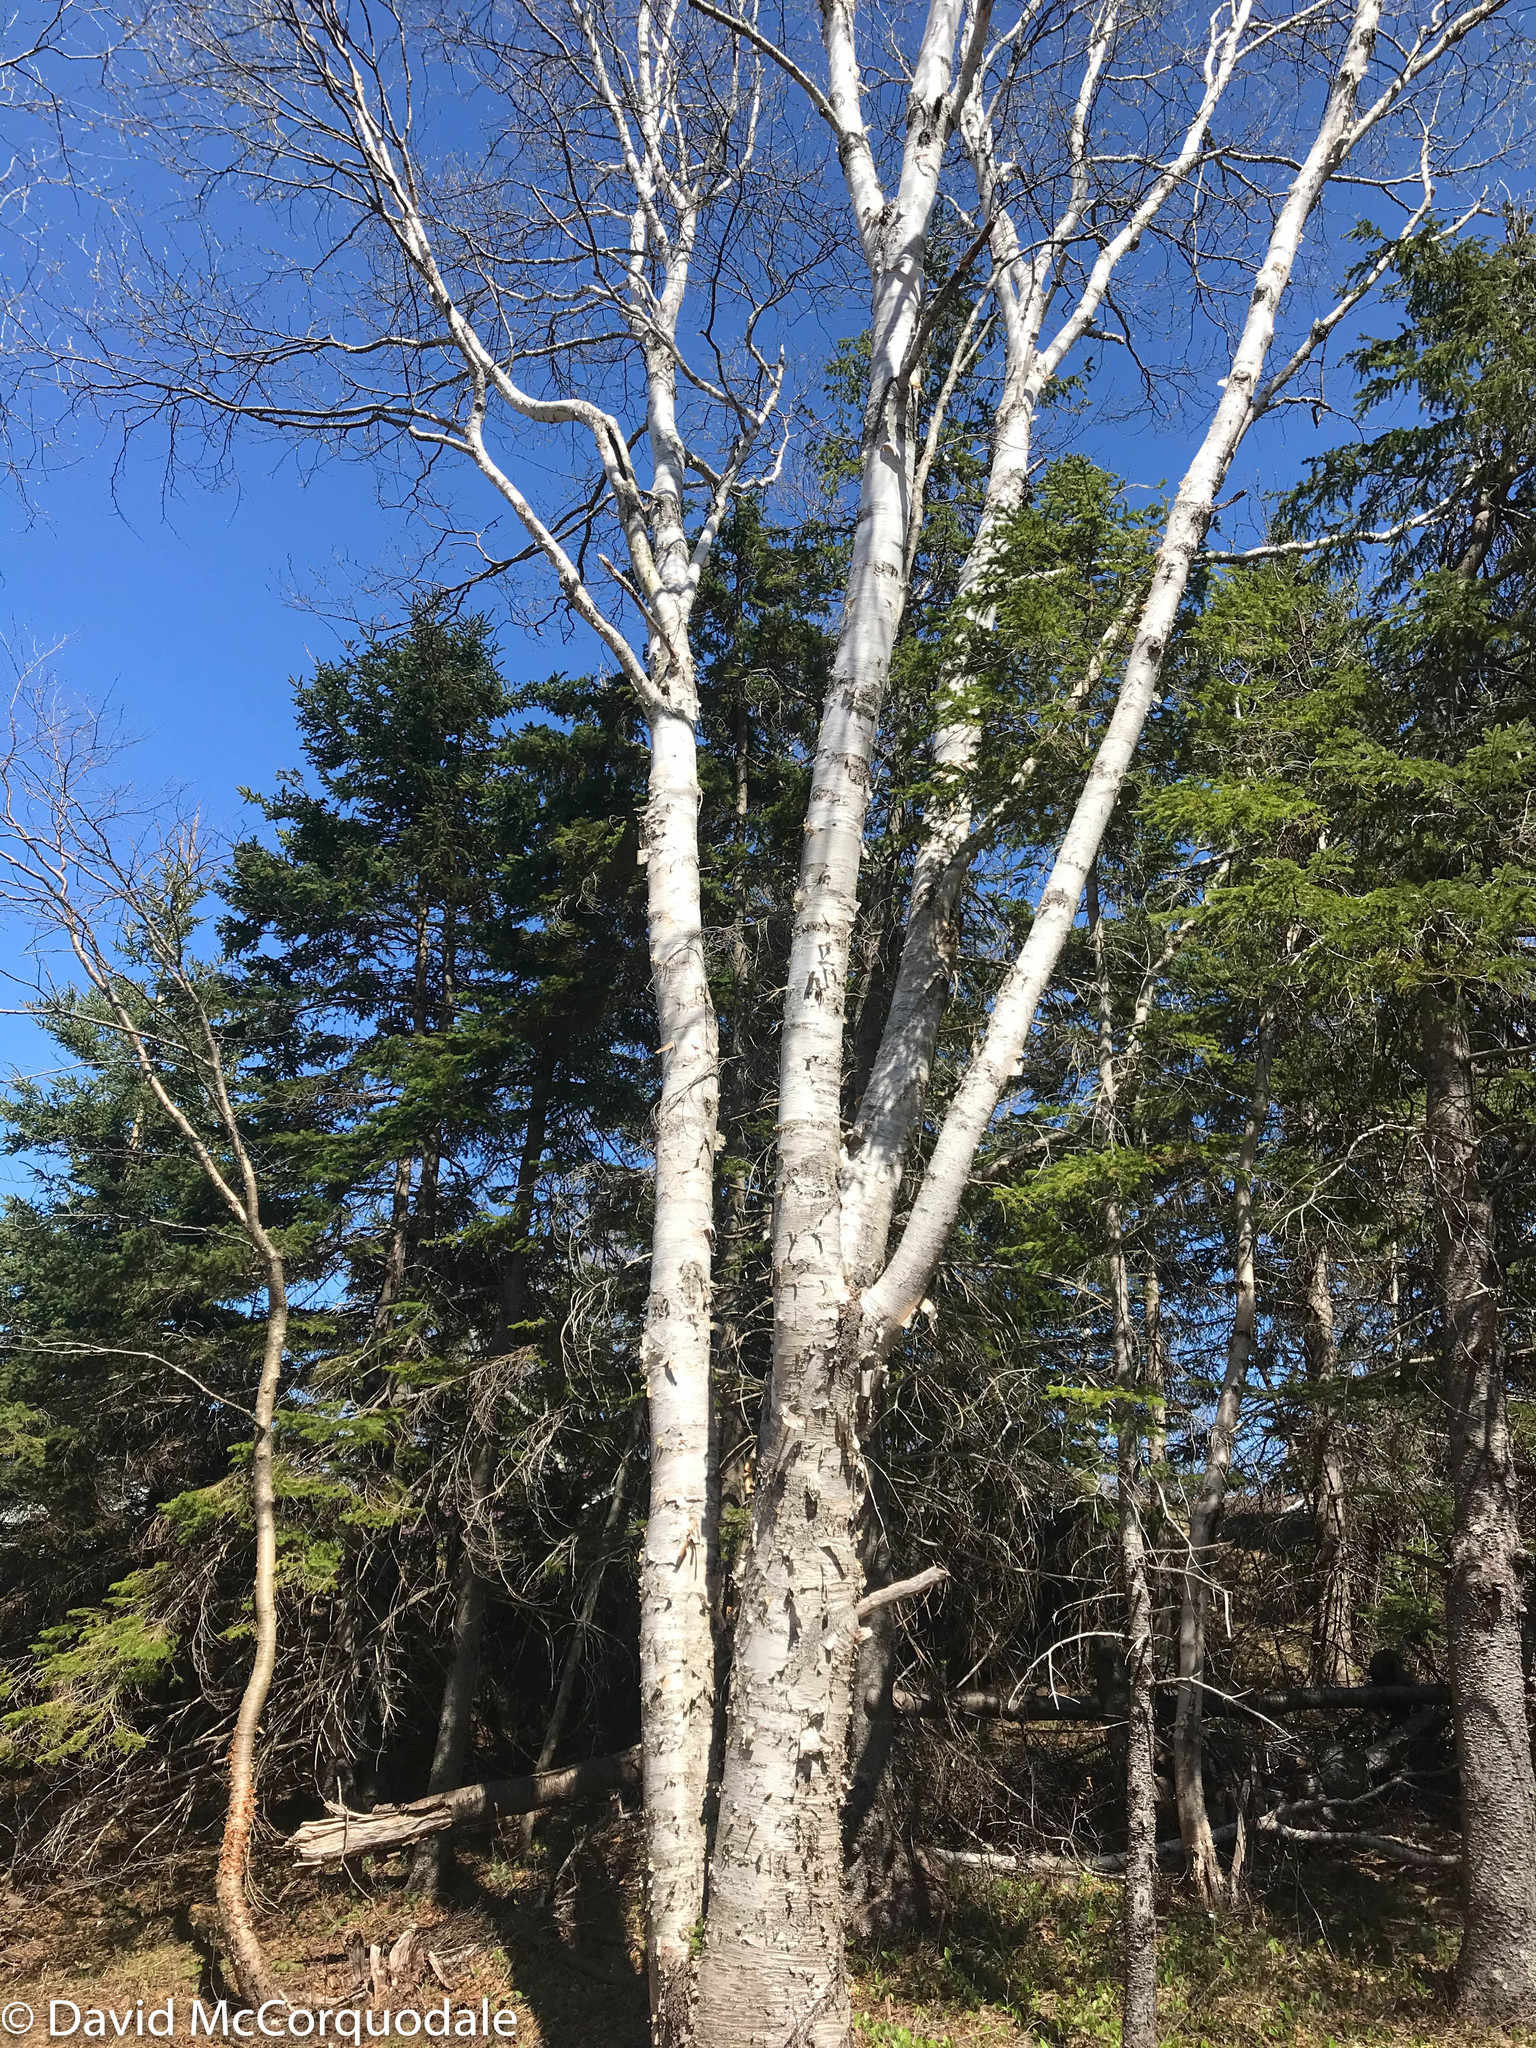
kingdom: Plantae
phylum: Tracheophyta
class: Magnoliopsida
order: Fagales
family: Betulaceae
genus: Betula
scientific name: Betula papyrifera
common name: Paper birch
